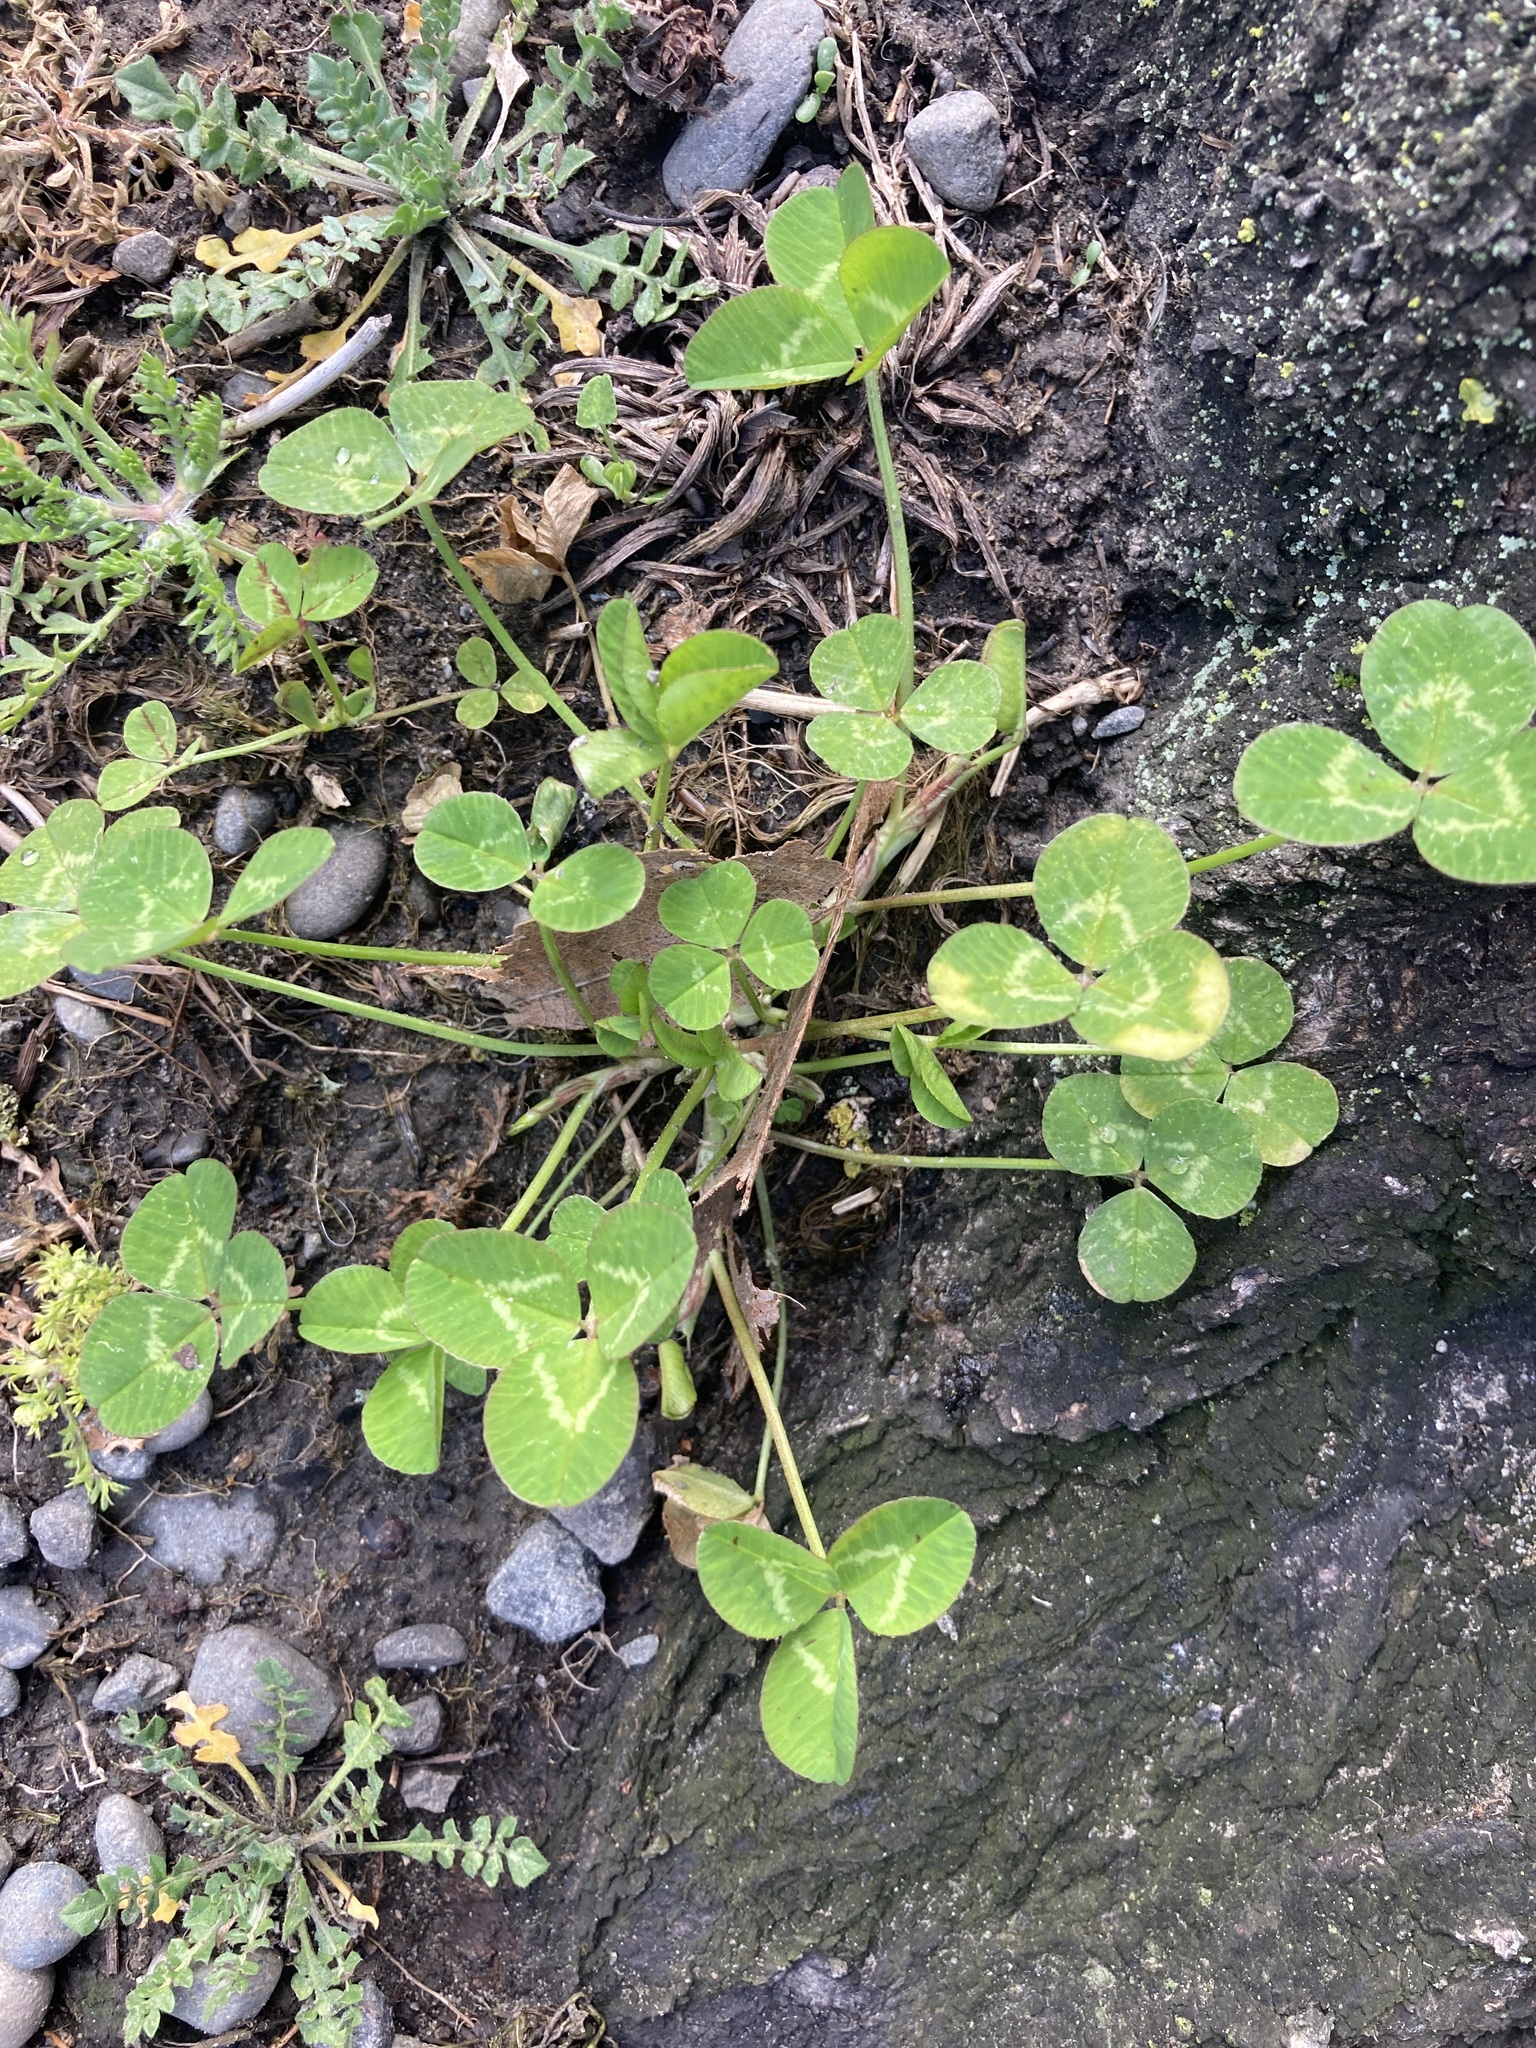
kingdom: Plantae
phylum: Tracheophyta
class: Magnoliopsida
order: Fabales
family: Fabaceae
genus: Trifolium
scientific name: Trifolium repens
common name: White clover
